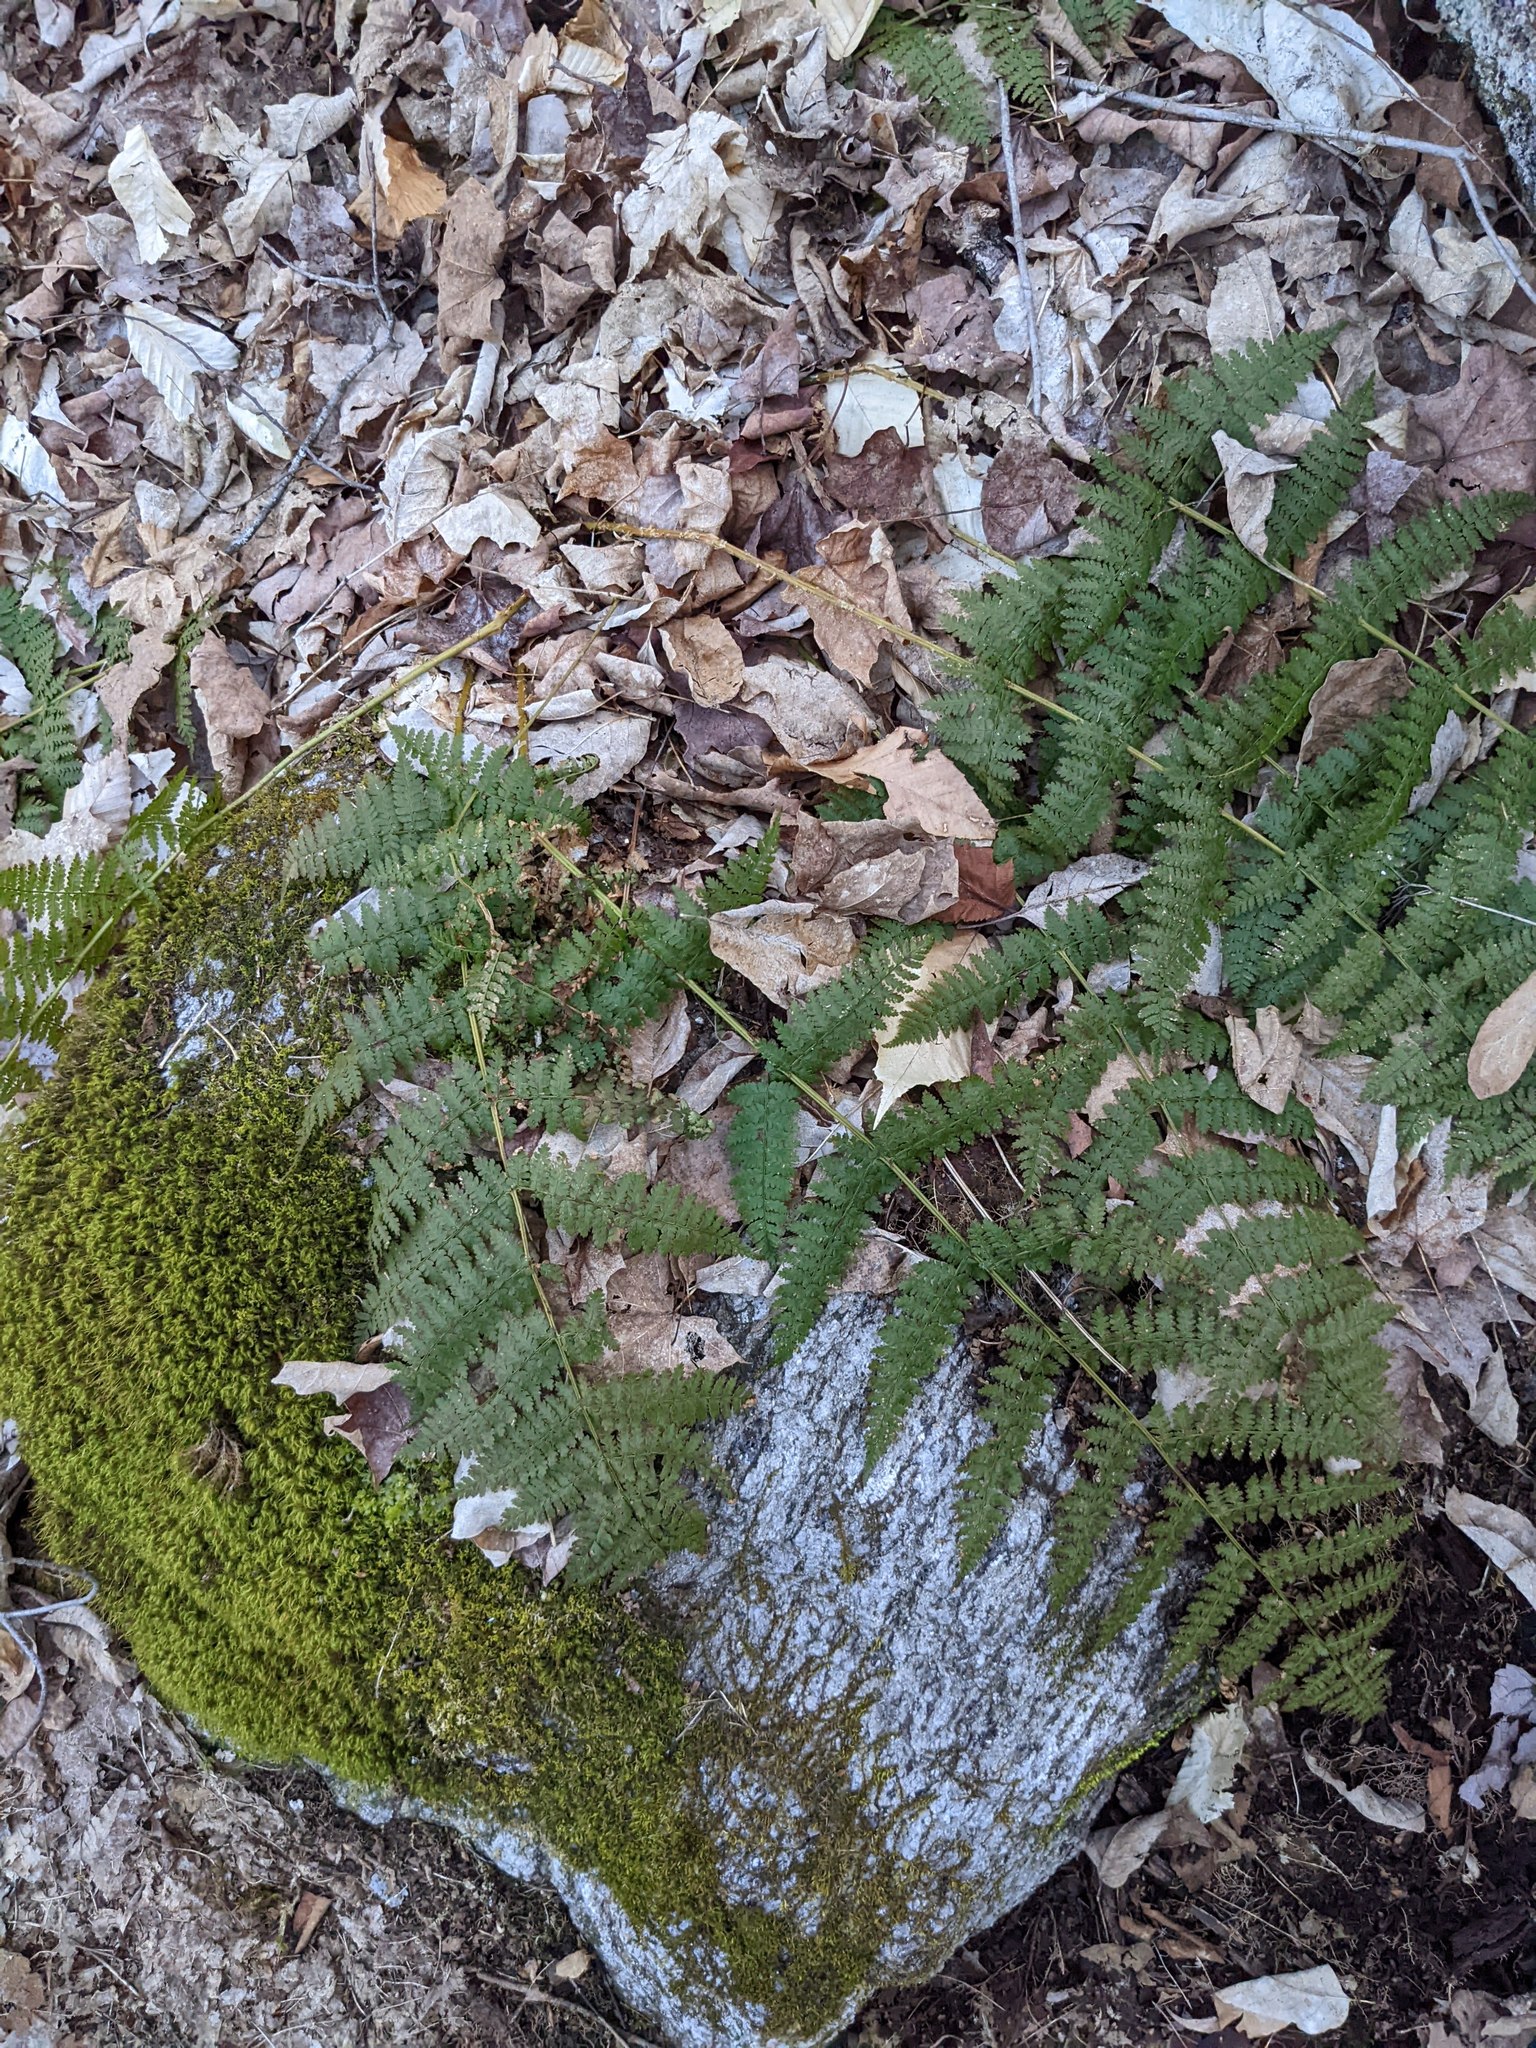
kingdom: Plantae
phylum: Tracheophyta
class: Polypodiopsida
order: Polypodiales
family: Dryopteridaceae
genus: Dryopteris
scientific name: Dryopteris intermedia
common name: Evergreen wood fern
